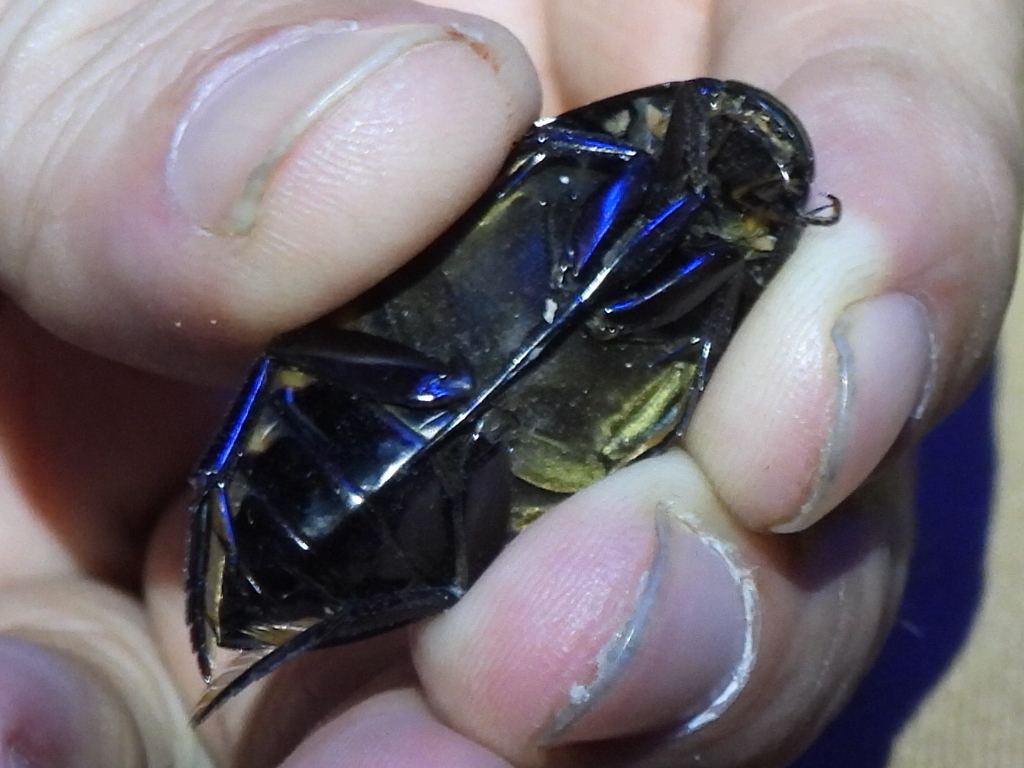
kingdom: Animalia
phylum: Arthropoda
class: Insecta
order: Coleoptera
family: Hydrophilidae
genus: Hydrophilus
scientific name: Hydrophilus triangularis
